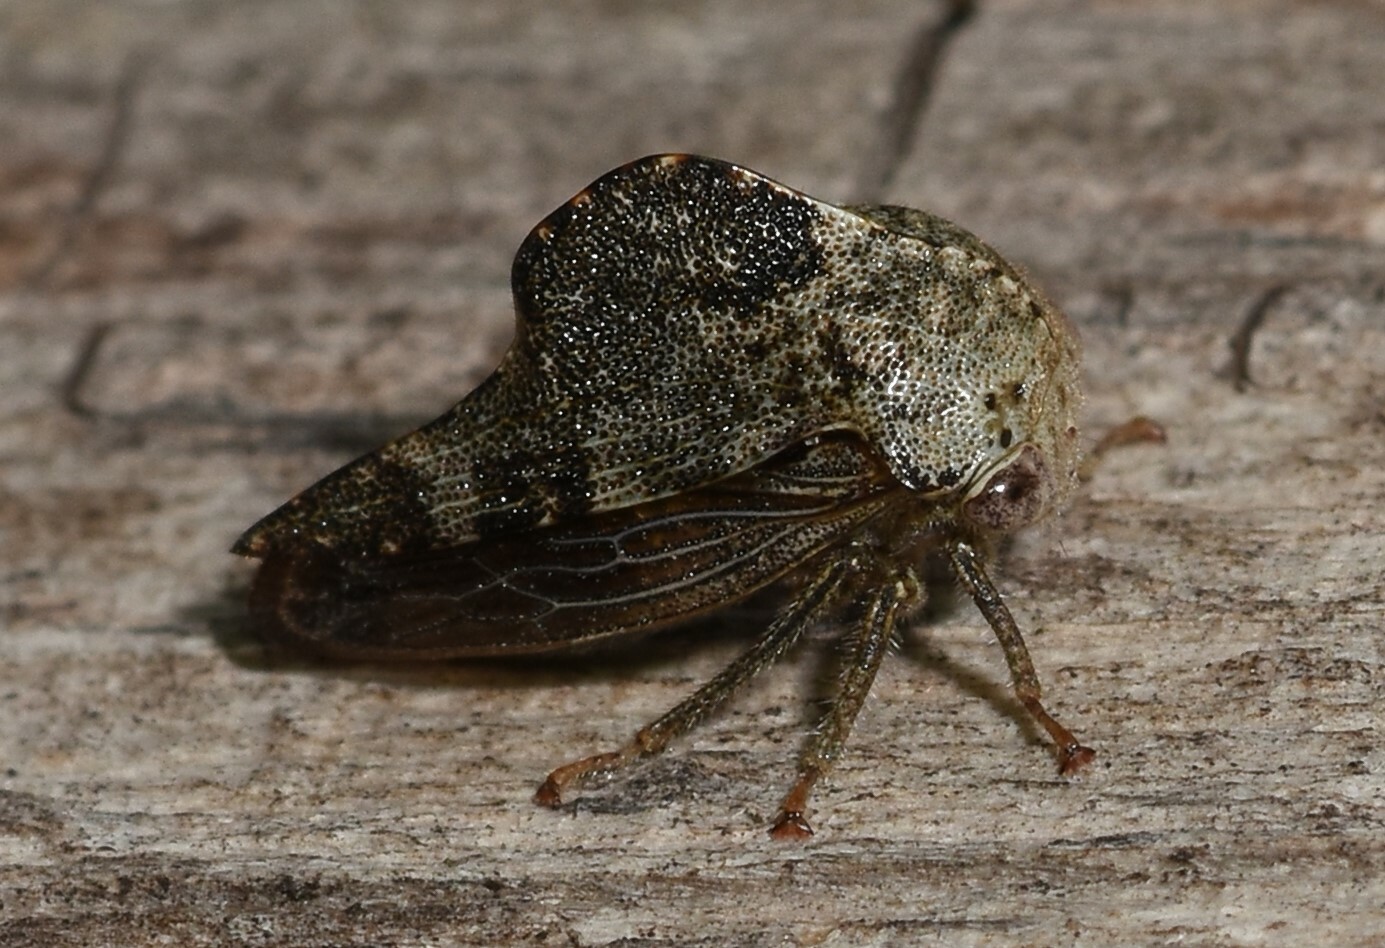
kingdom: Animalia
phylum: Arthropoda
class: Insecta
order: Hemiptera
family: Membracidae
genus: Telamona
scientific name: Telamona reclivata
